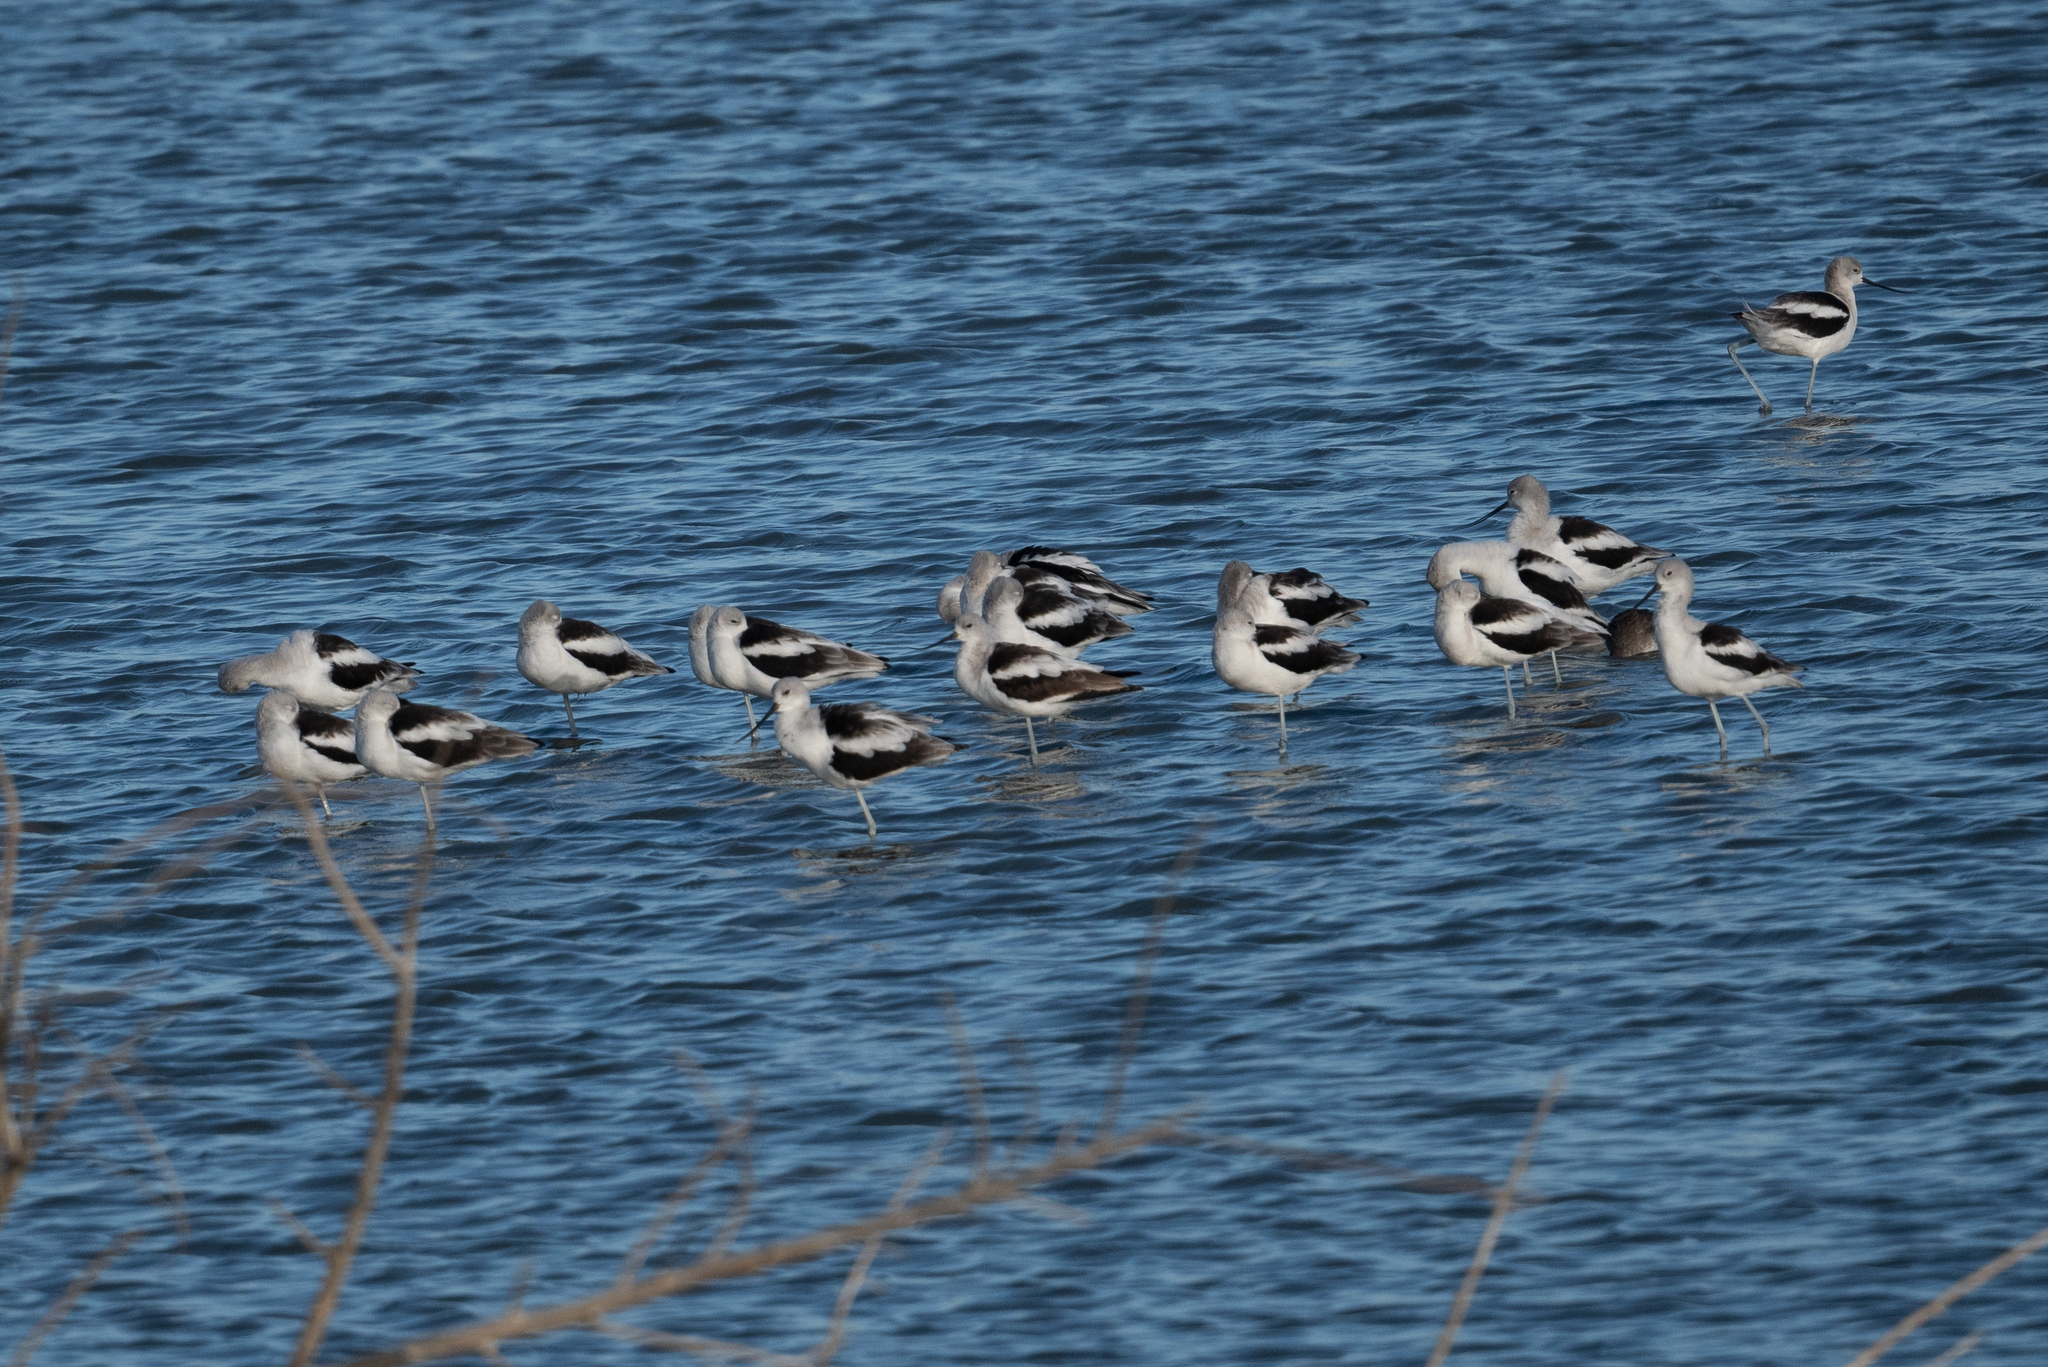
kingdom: Animalia
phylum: Chordata
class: Aves
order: Charadriiformes
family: Recurvirostridae
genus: Recurvirostra
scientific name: Recurvirostra americana
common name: American avocet
